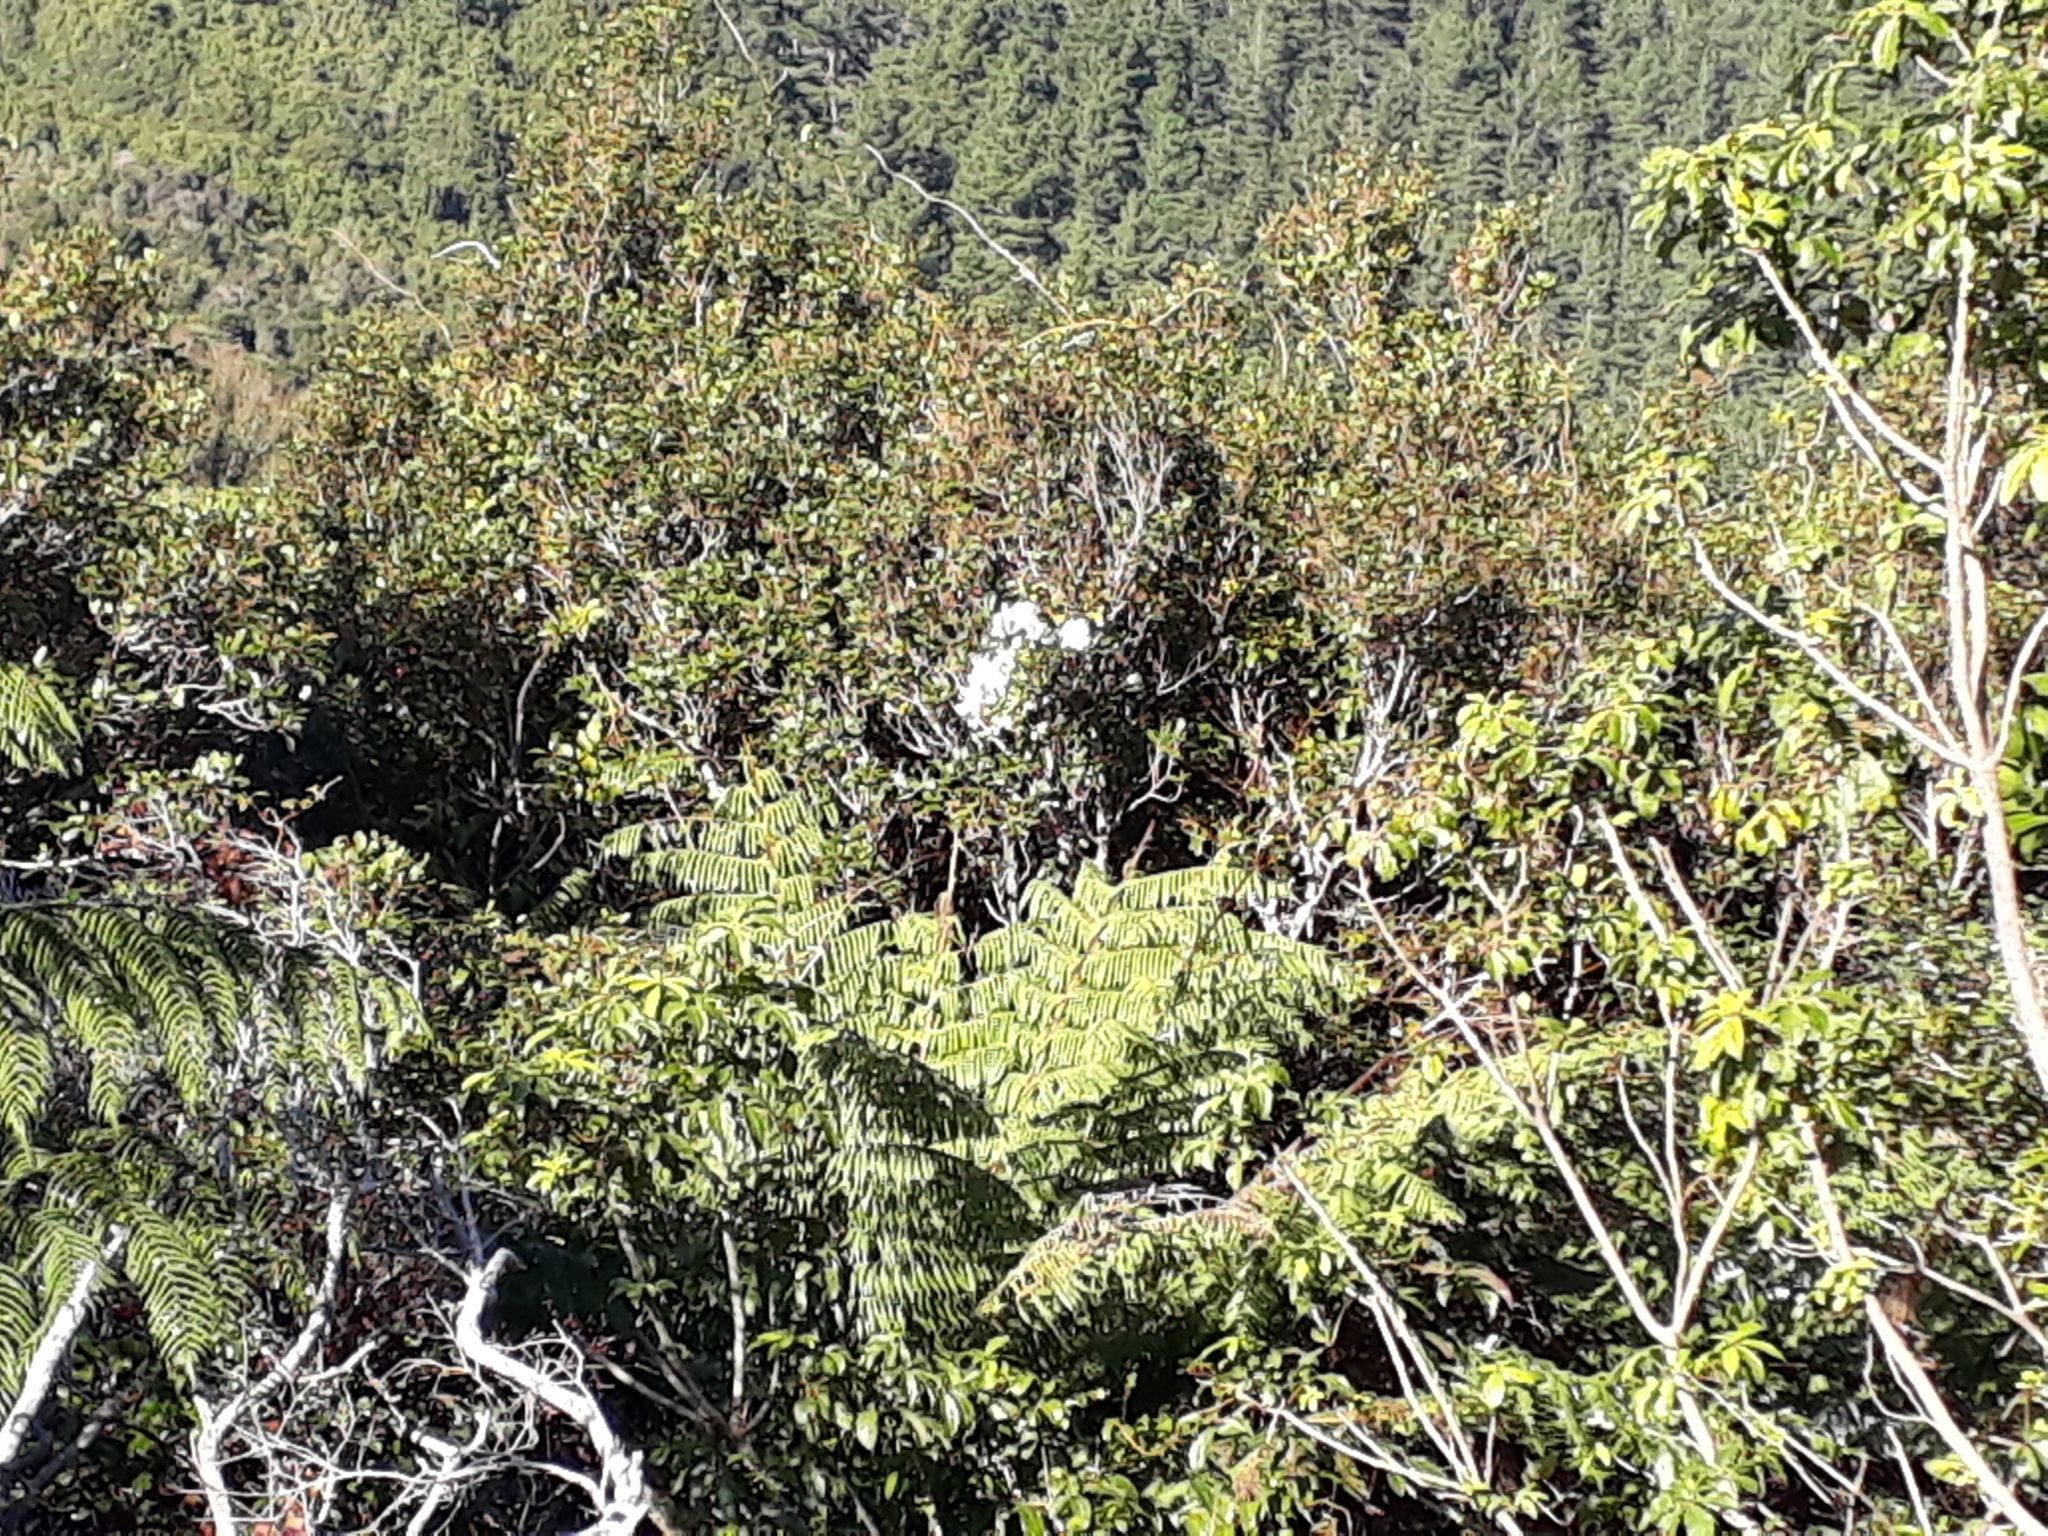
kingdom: Plantae
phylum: Tracheophyta
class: Magnoliopsida
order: Ranunculales
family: Ranunculaceae
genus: Clematis
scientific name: Clematis paniculata
